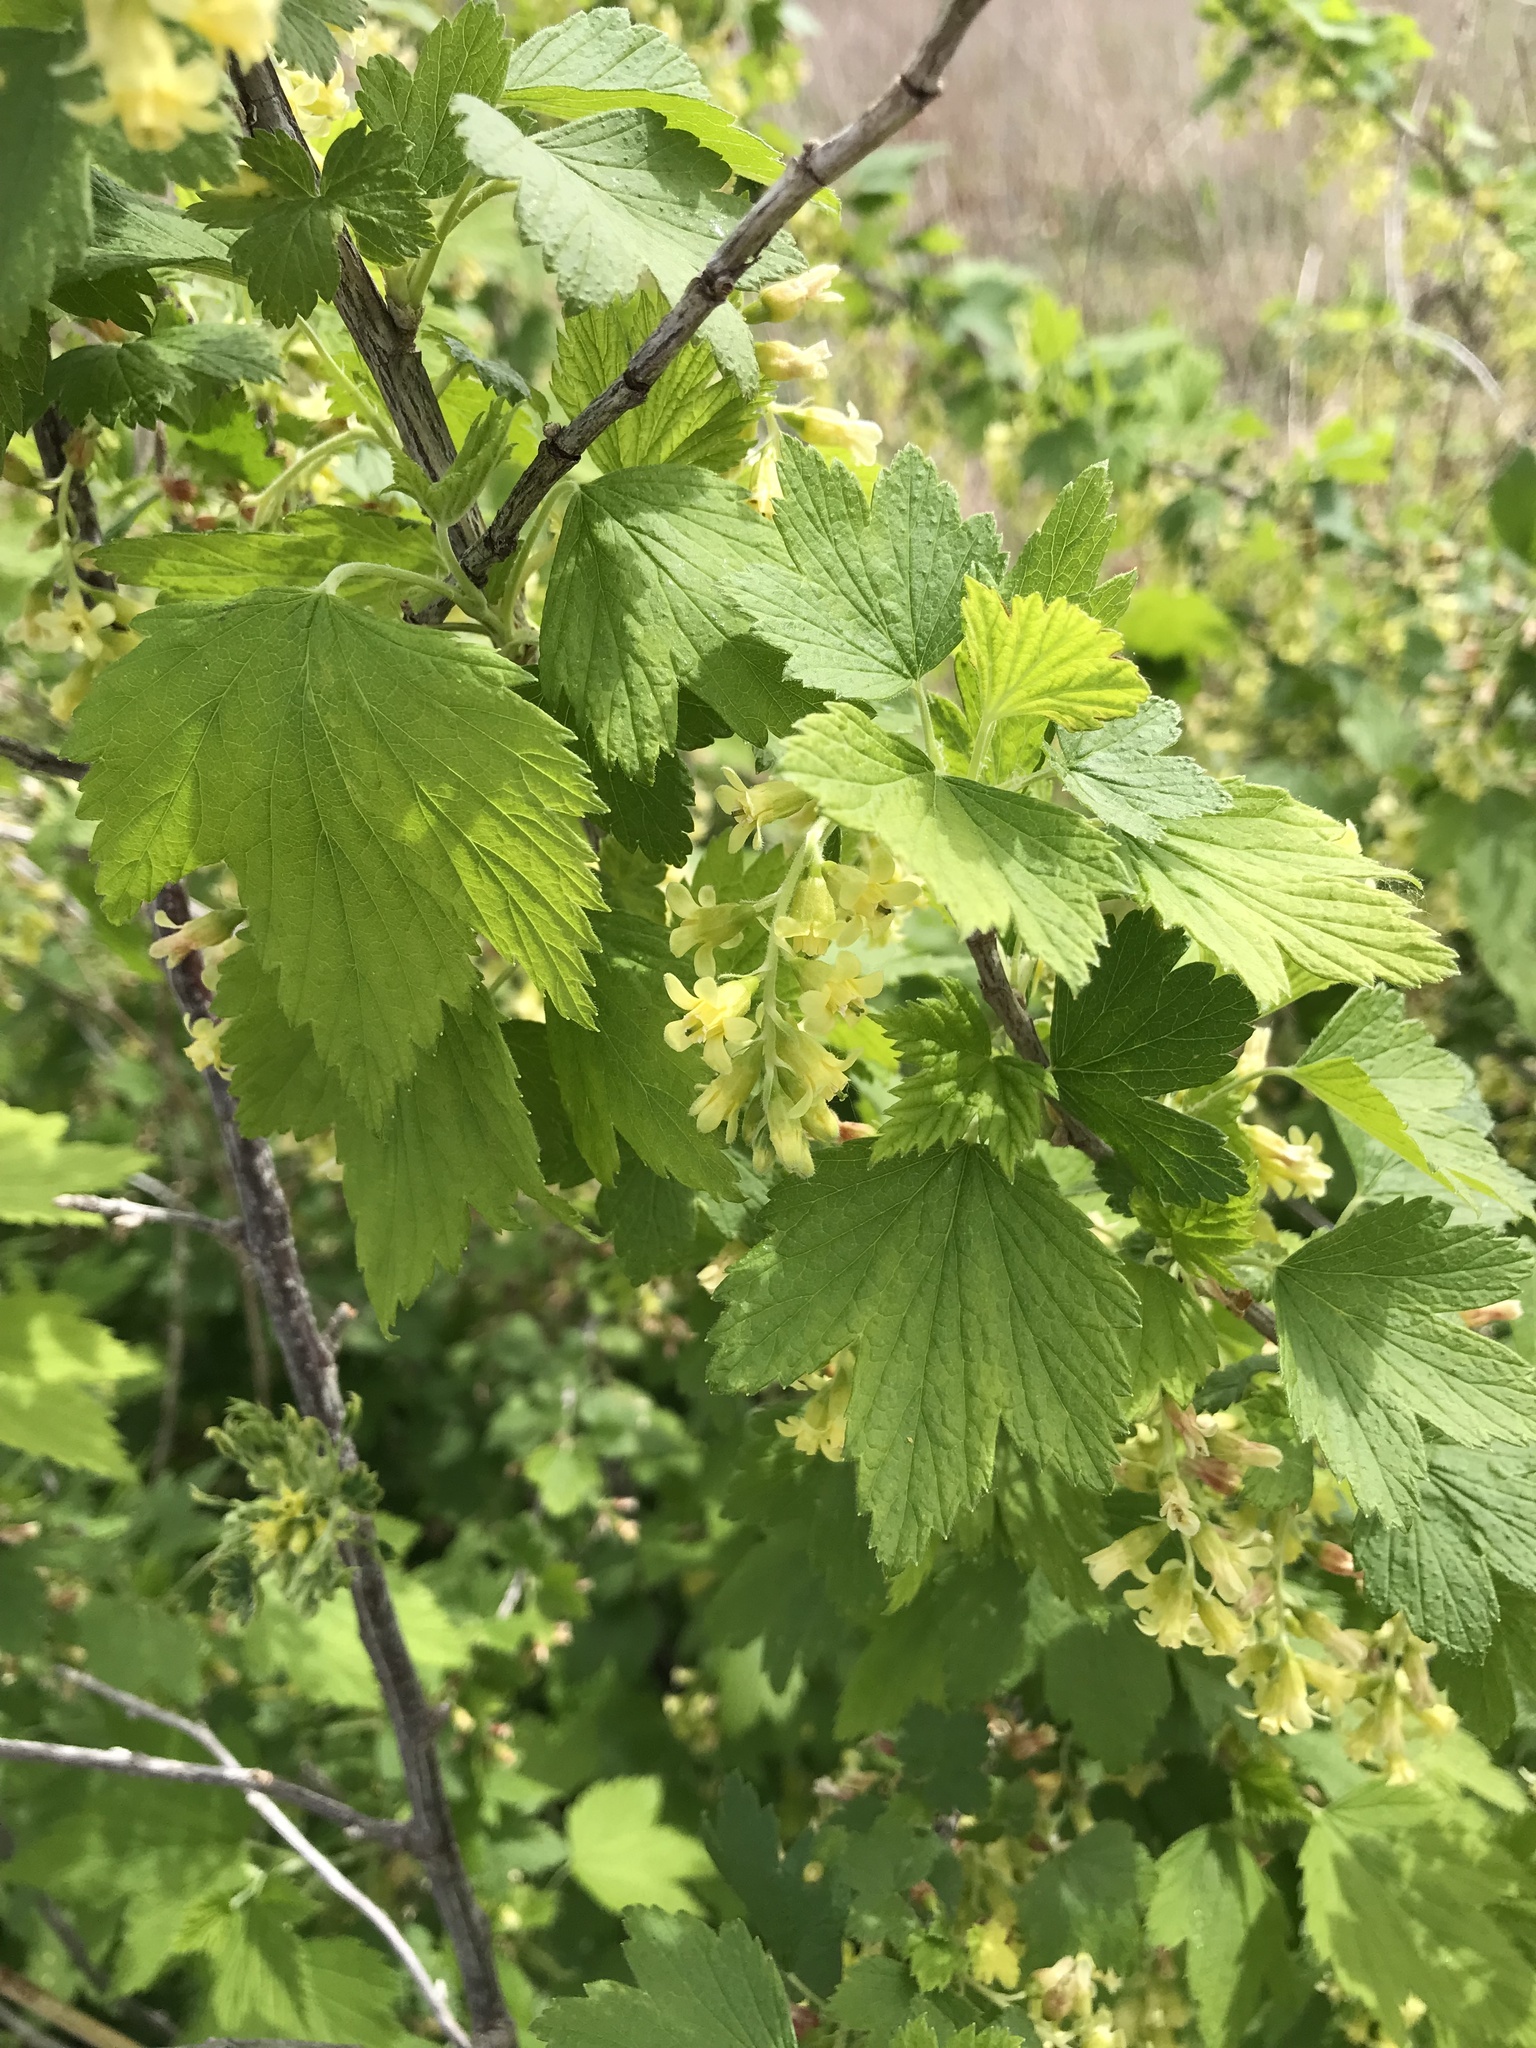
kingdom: Plantae
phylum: Tracheophyta
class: Magnoliopsida
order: Saxifragales
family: Grossulariaceae
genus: Ribes
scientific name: Ribes americanum
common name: American black currant
